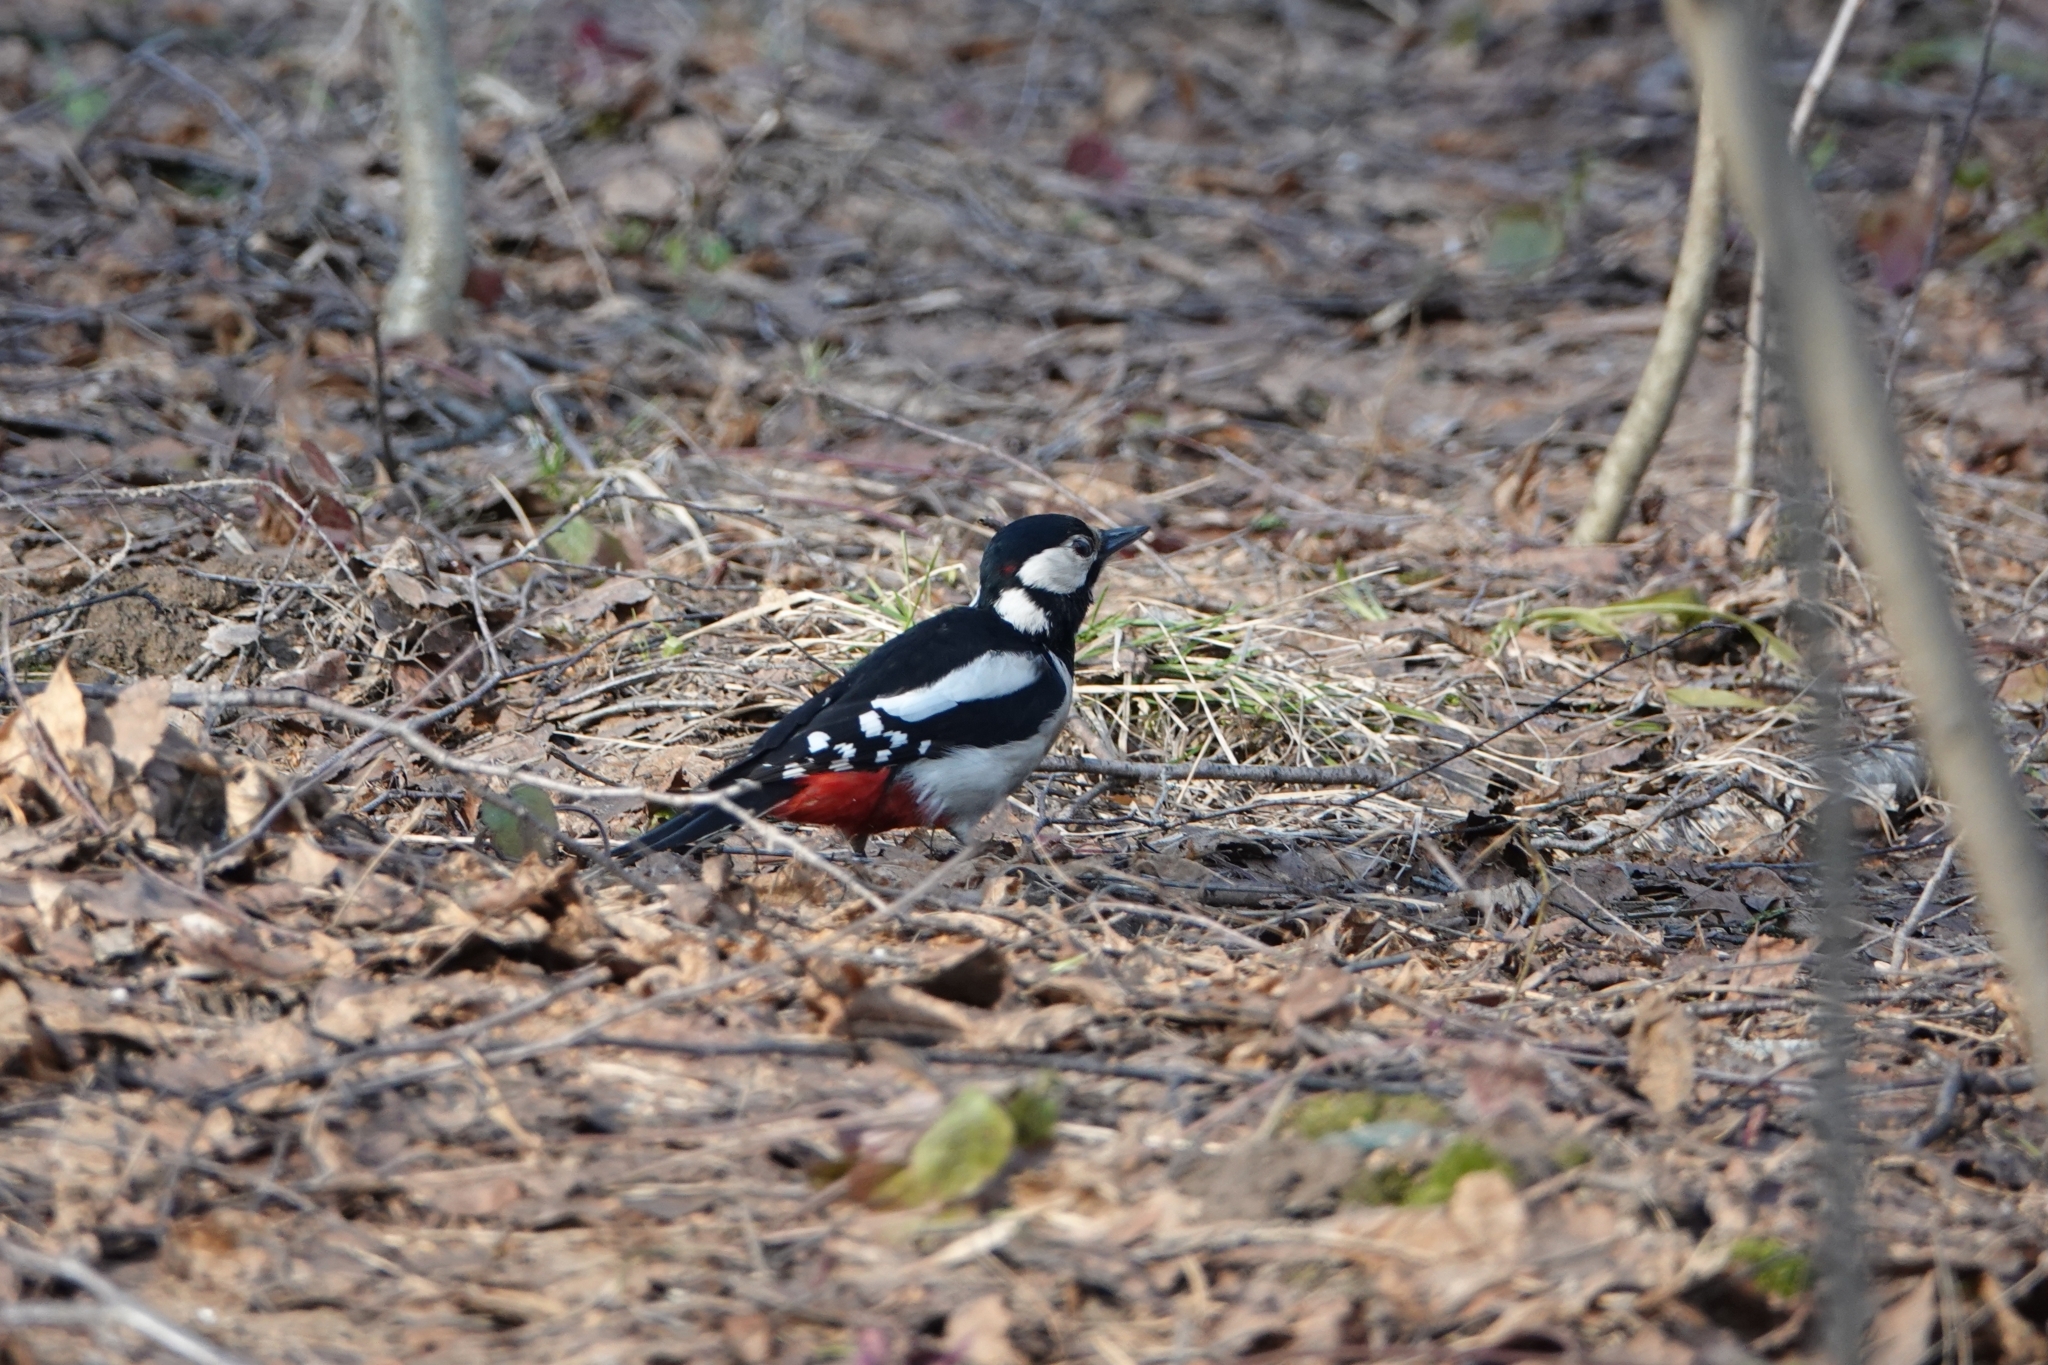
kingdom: Animalia
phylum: Chordata
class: Aves
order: Piciformes
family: Picidae
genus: Dendrocopos
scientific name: Dendrocopos major
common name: Great spotted woodpecker
